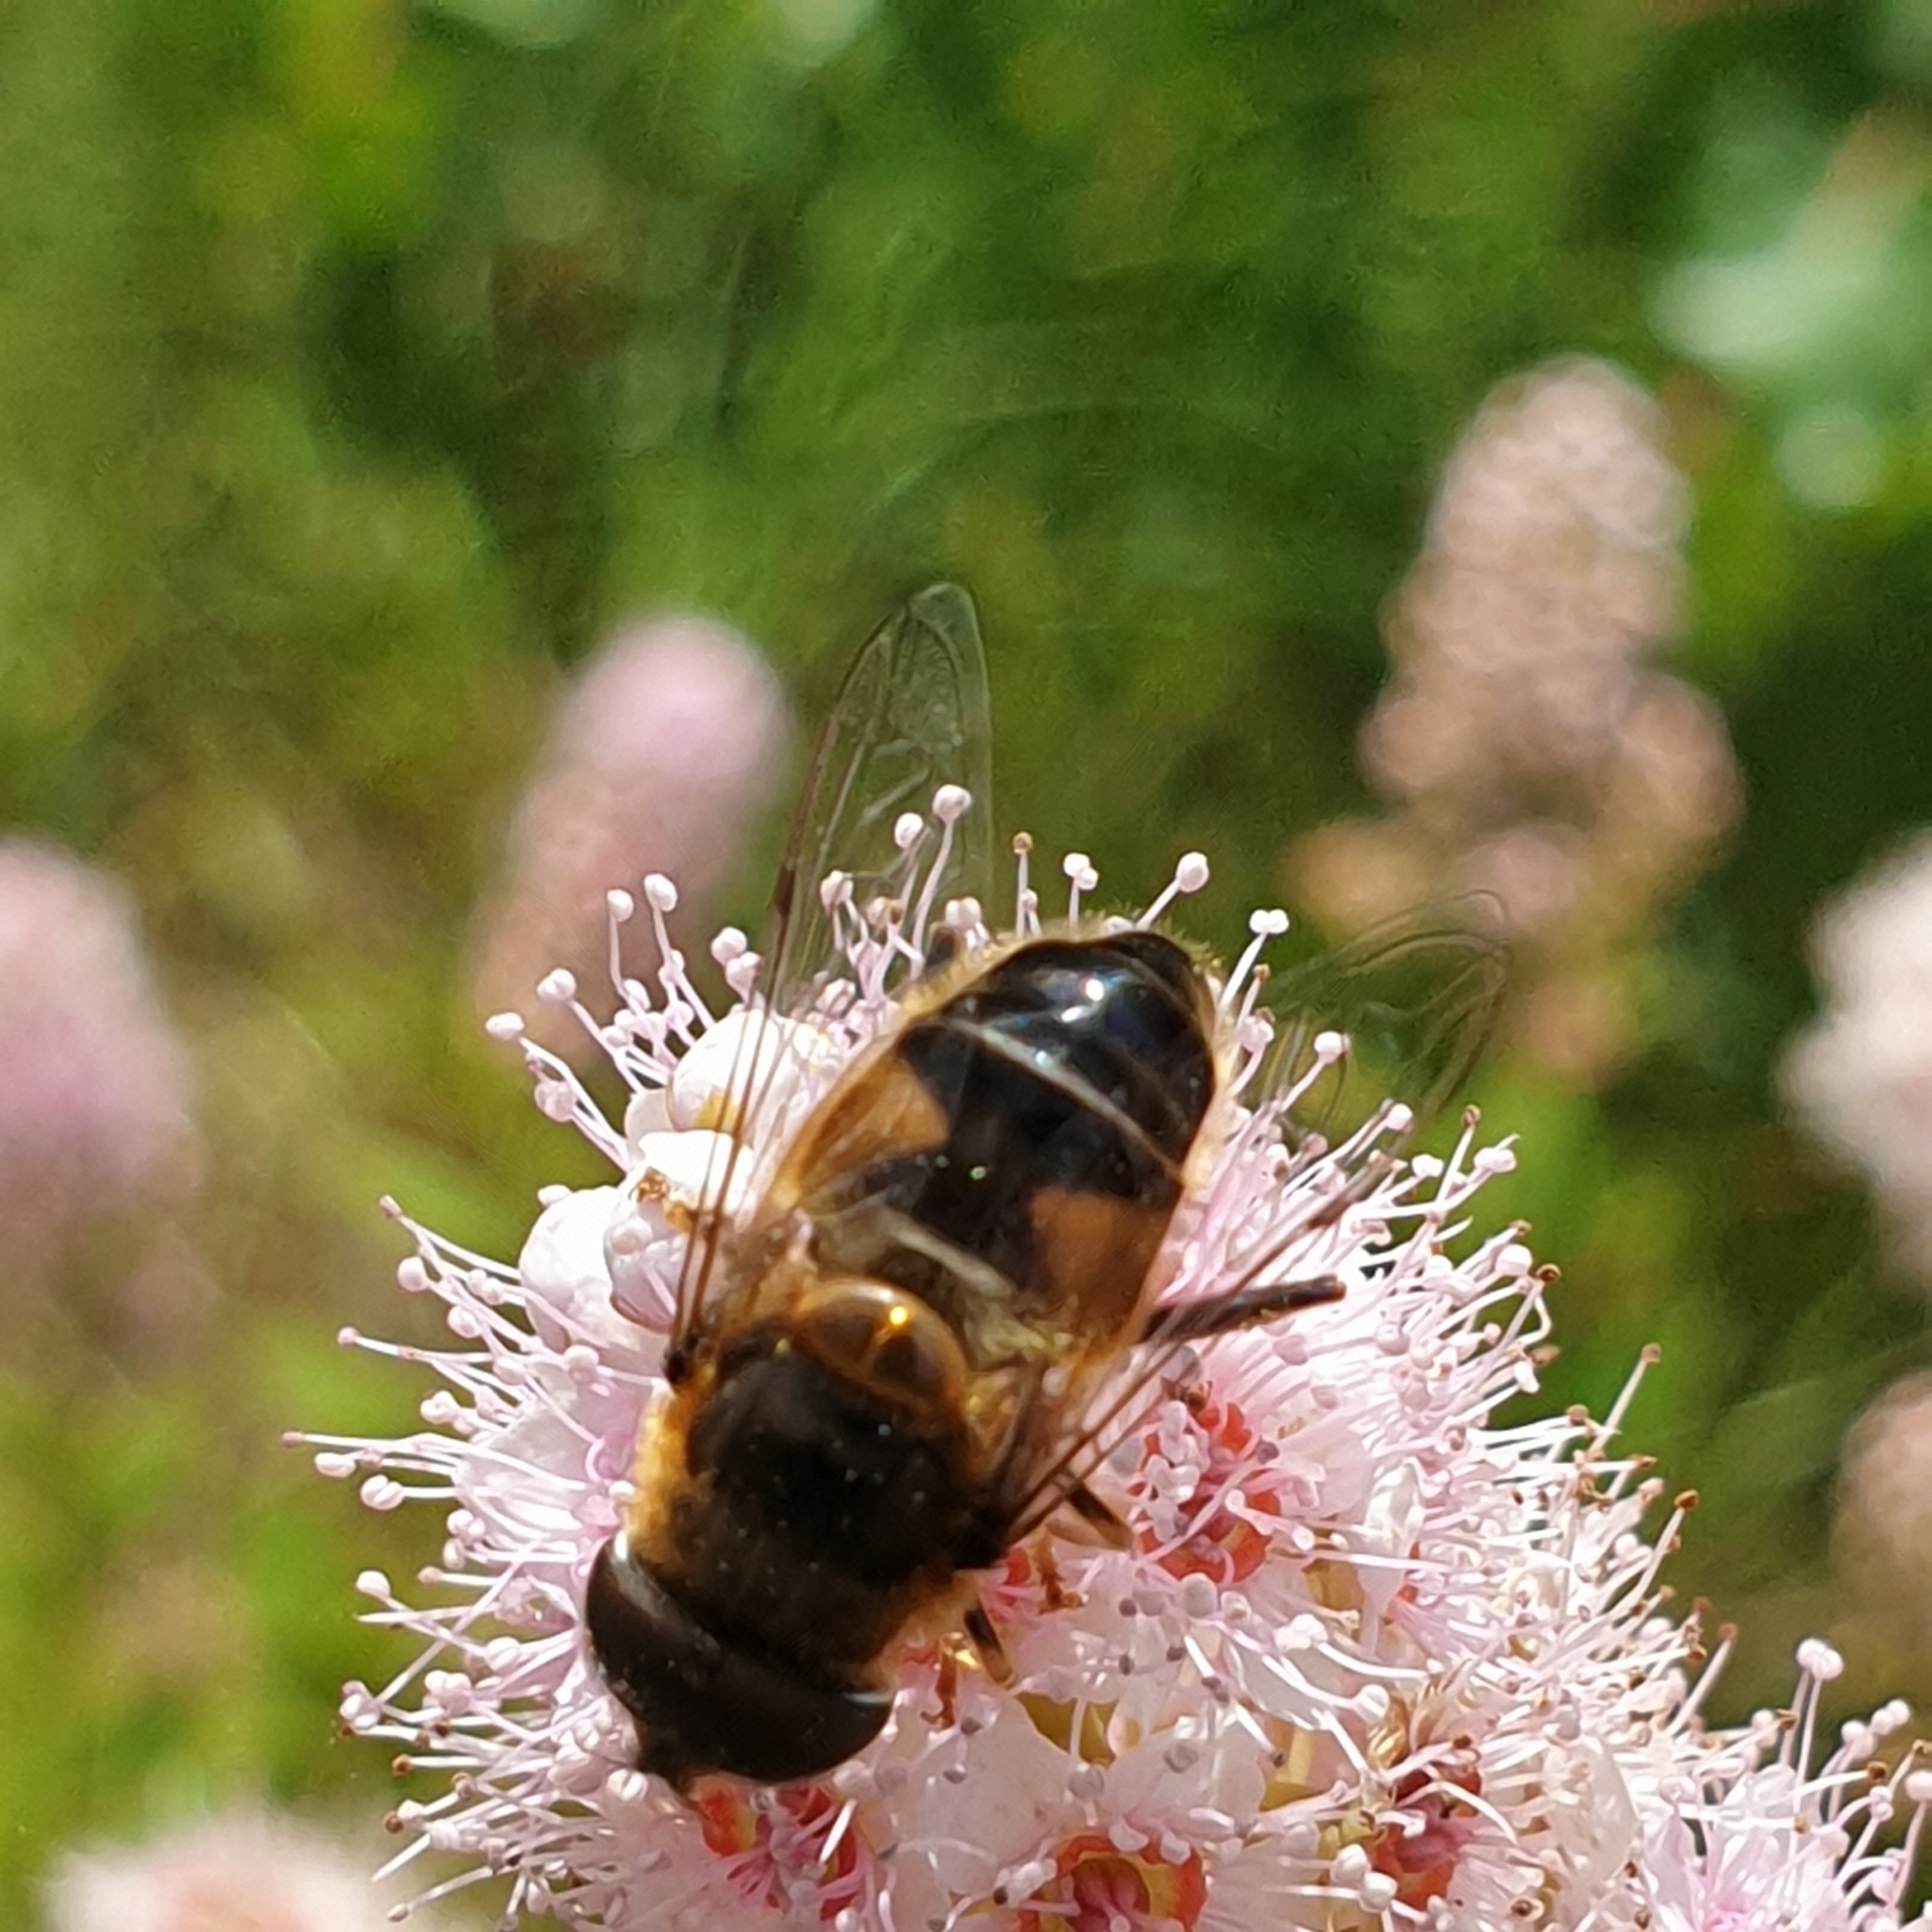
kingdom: Animalia
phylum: Arthropoda
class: Insecta
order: Diptera
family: Syrphidae
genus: Eristalis
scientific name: Eristalis pertinax
